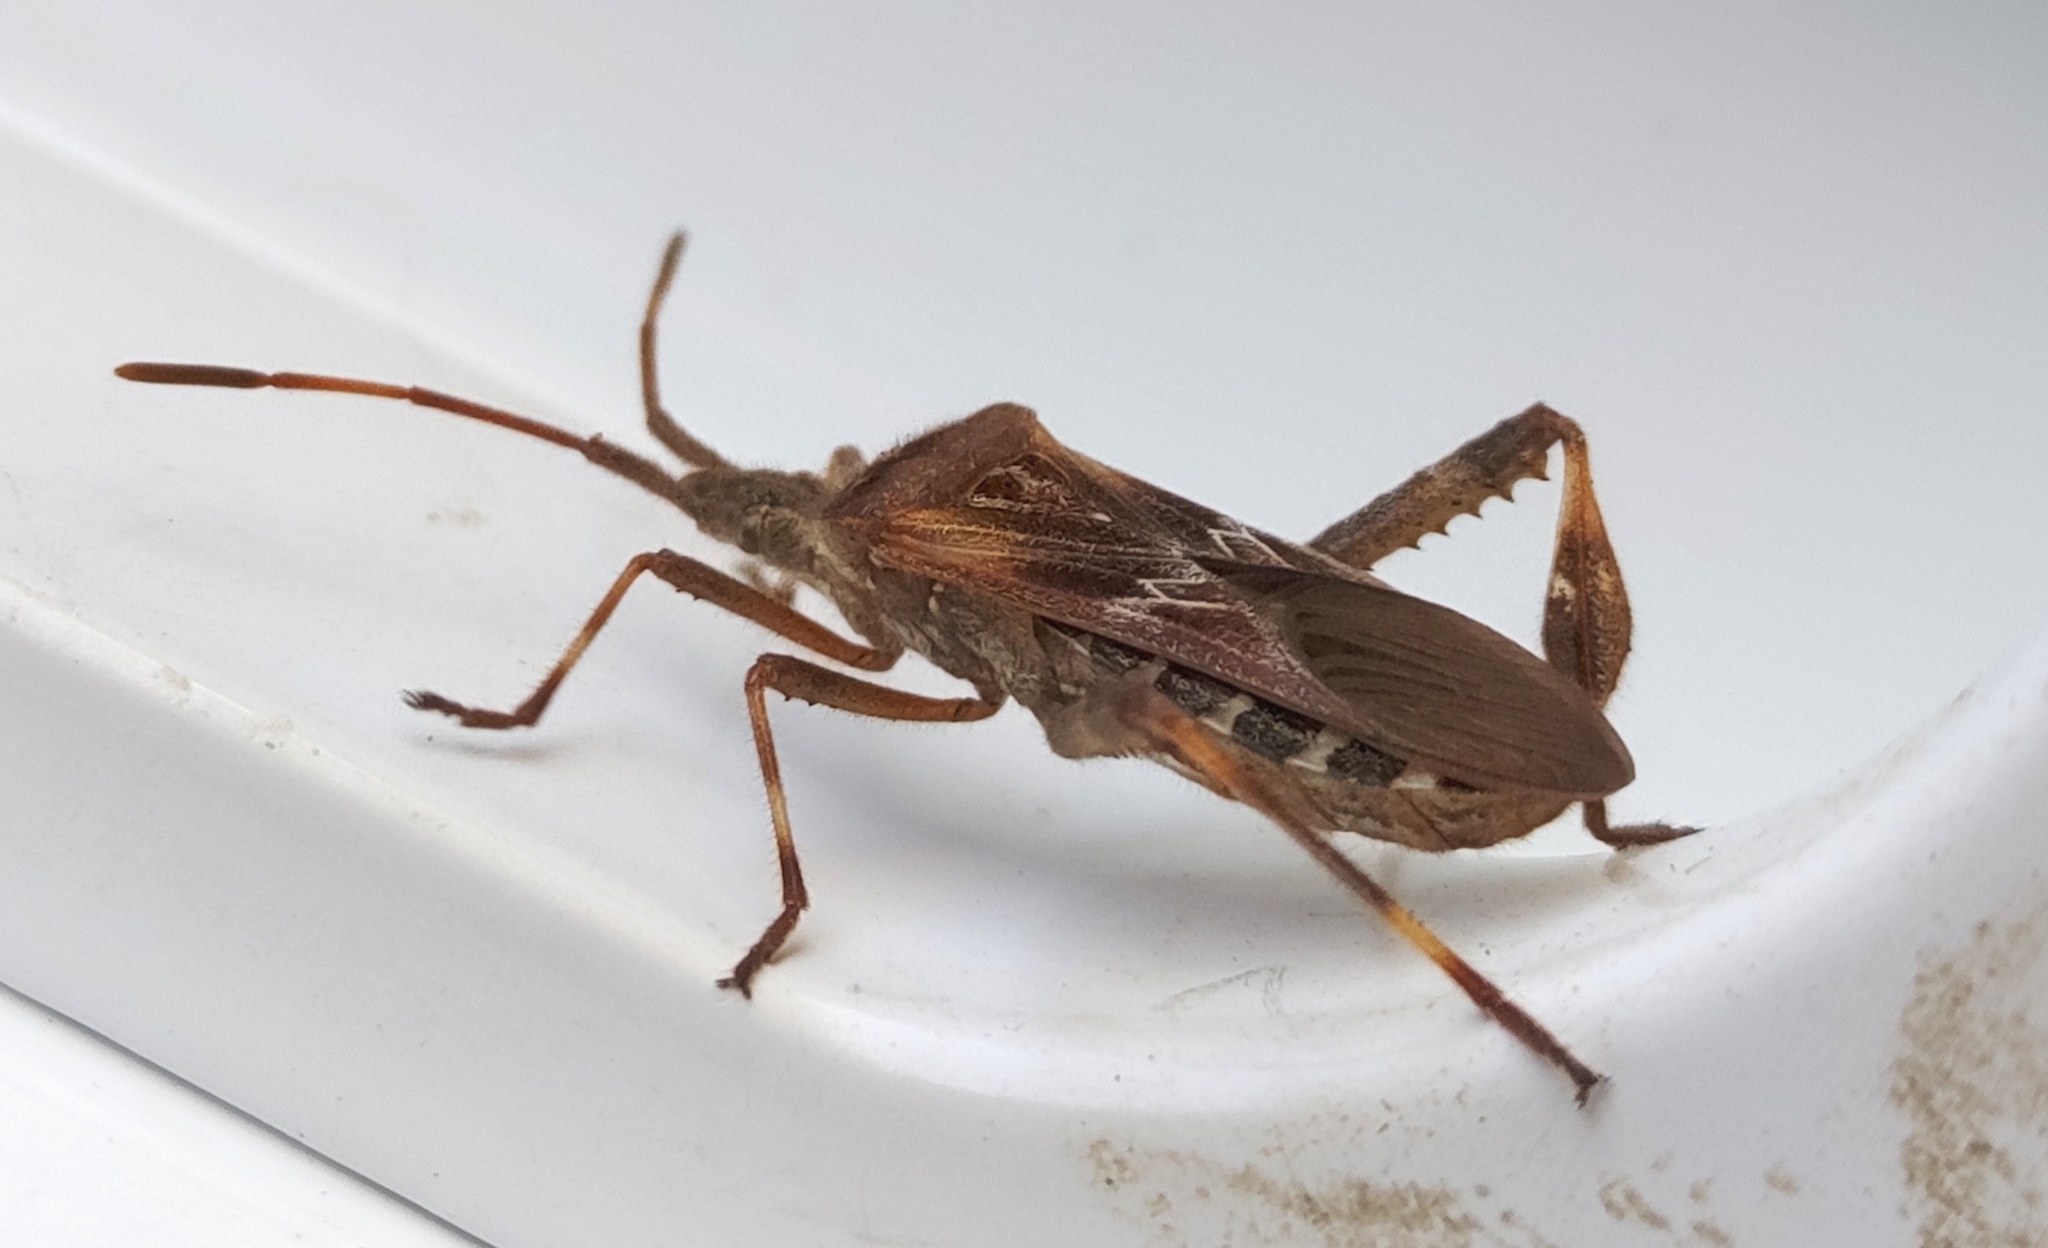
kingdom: Animalia
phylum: Arthropoda
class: Insecta
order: Hemiptera
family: Coreidae
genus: Leptoglossus
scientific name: Leptoglossus occidentalis
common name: Western conifer-seed bug
